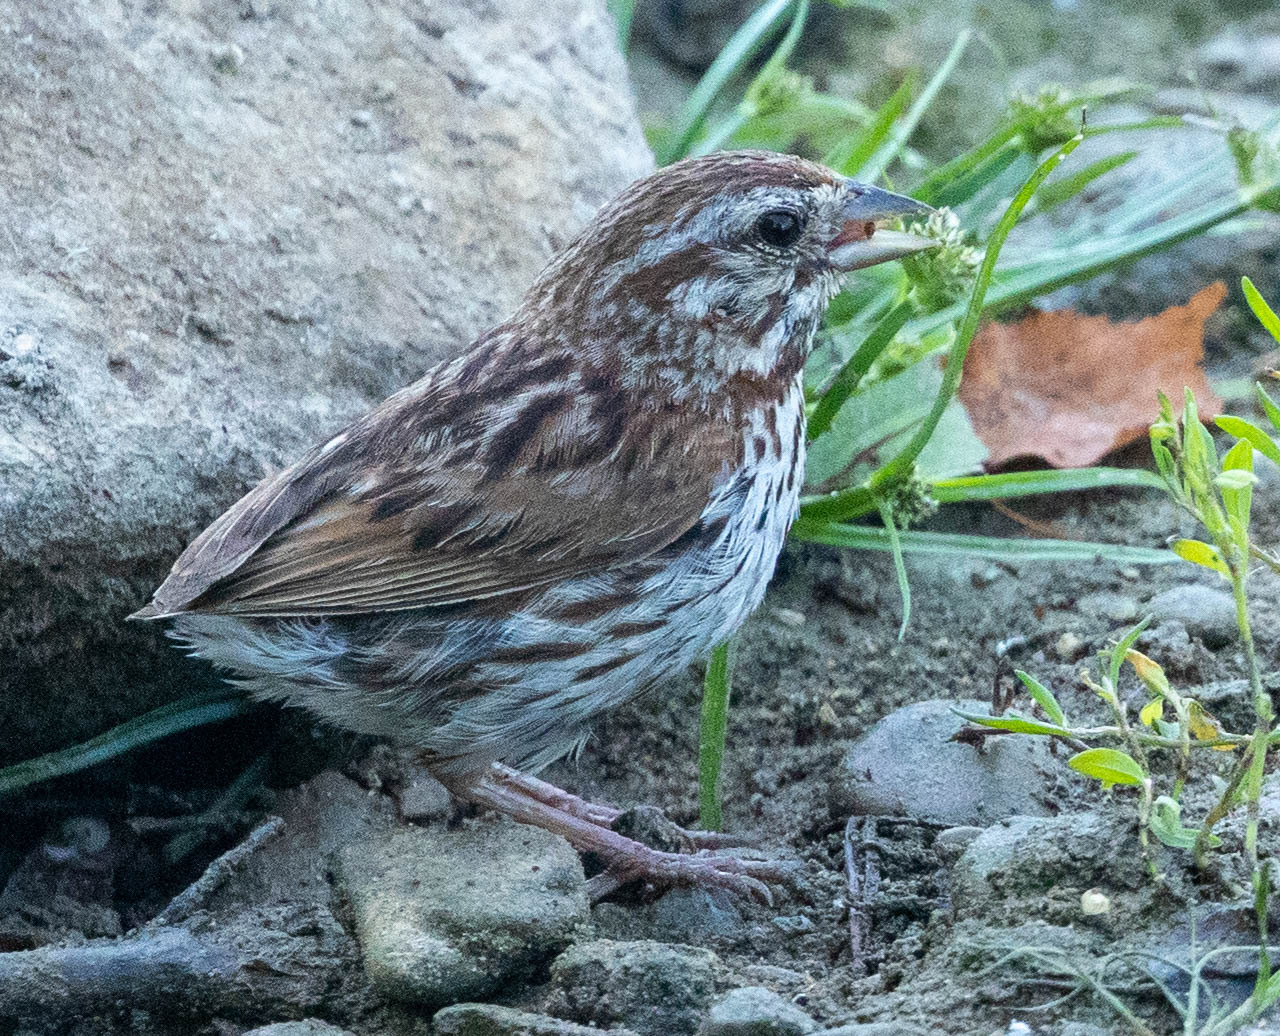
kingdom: Animalia
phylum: Chordata
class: Aves
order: Passeriformes
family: Passerellidae
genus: Melospiza
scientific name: Melospiza melodia
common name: Song sparrow
